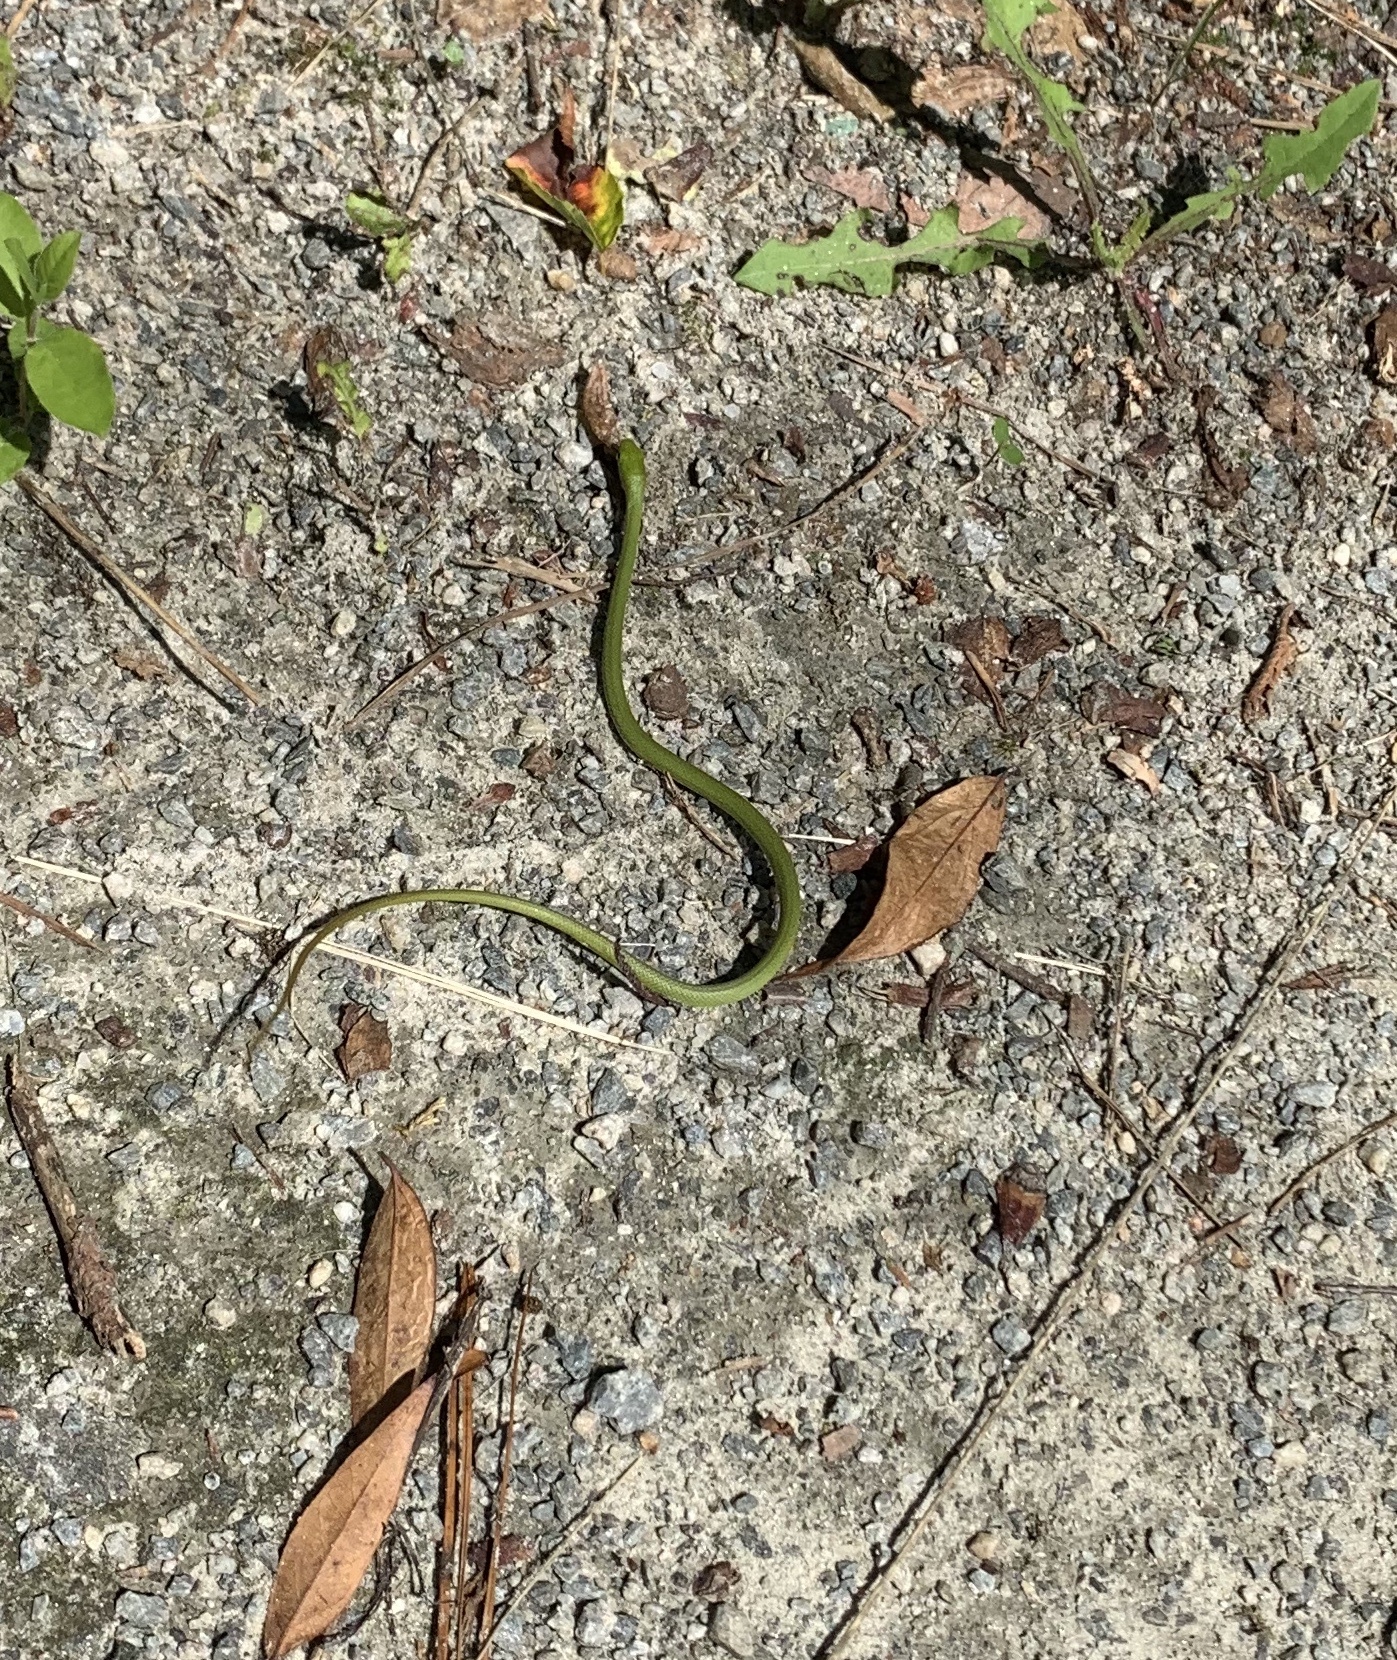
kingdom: Animalia
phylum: Chordata
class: Squamata
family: Colubridae
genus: Opheodrys
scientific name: Opheodrys aestivus
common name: Rough greensnake
